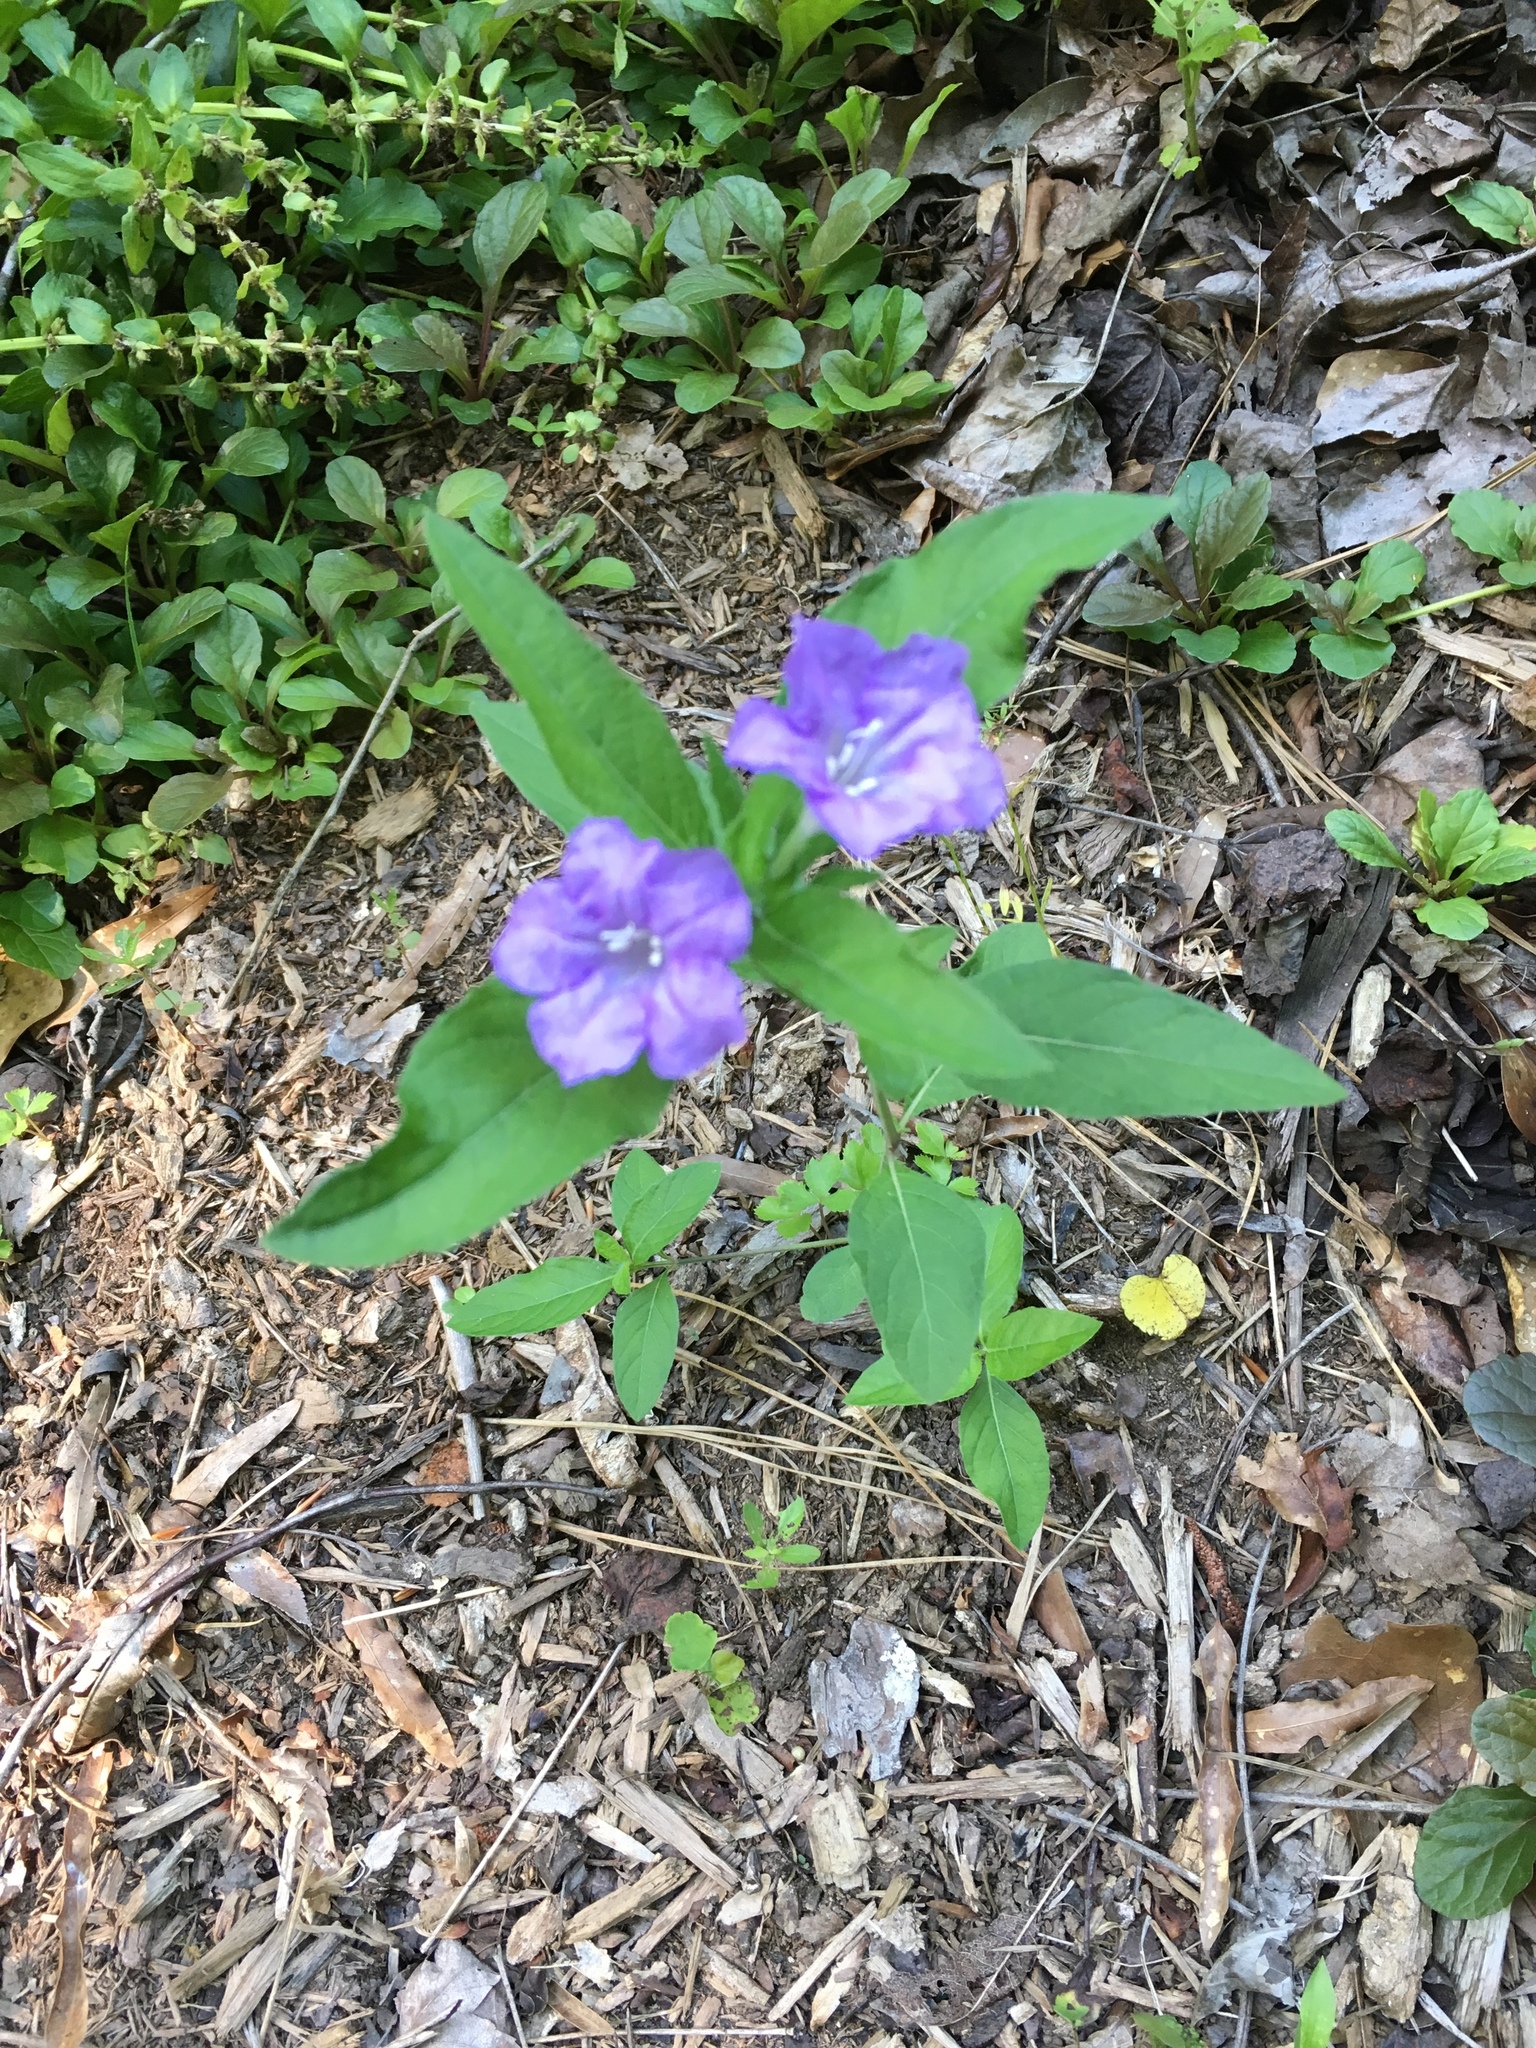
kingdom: Plantae
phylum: Tracheophyta
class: Magnoliopsida
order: Lamiales
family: Acanthaceae
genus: Ruellia
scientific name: Ruellia caroliniensis
